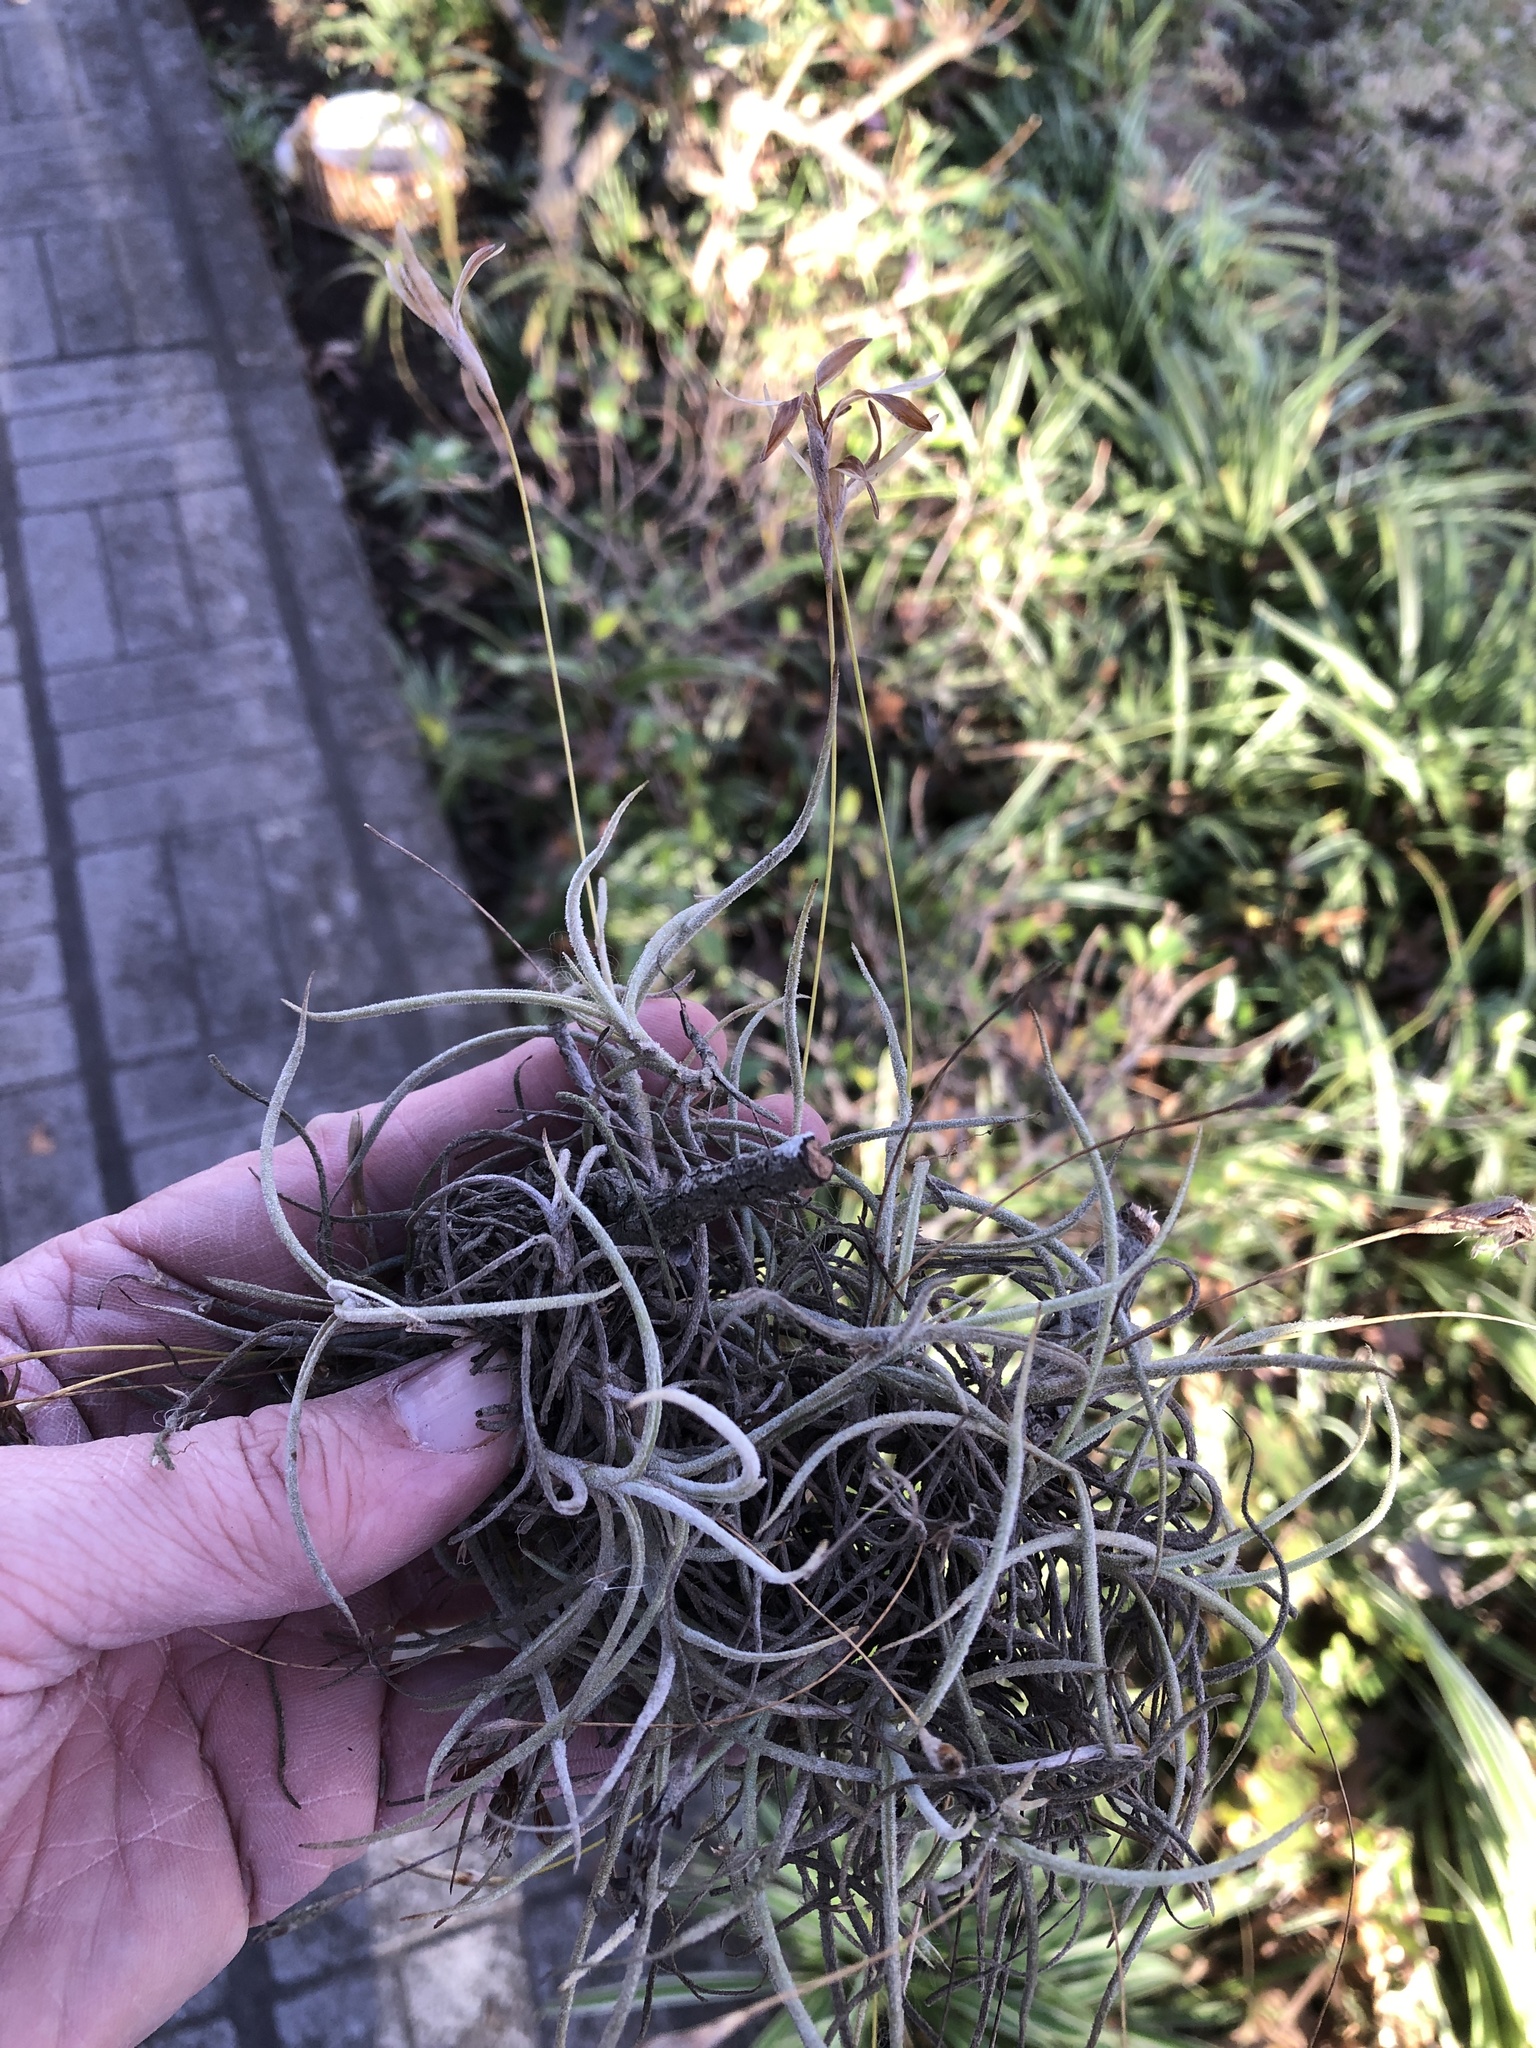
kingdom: Plantae
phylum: Tracheophyta
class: Liliopsida
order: Poales
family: Bromeliaceae
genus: Tillandsia
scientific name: Tillandsia recurvata
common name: Small ballmoss
